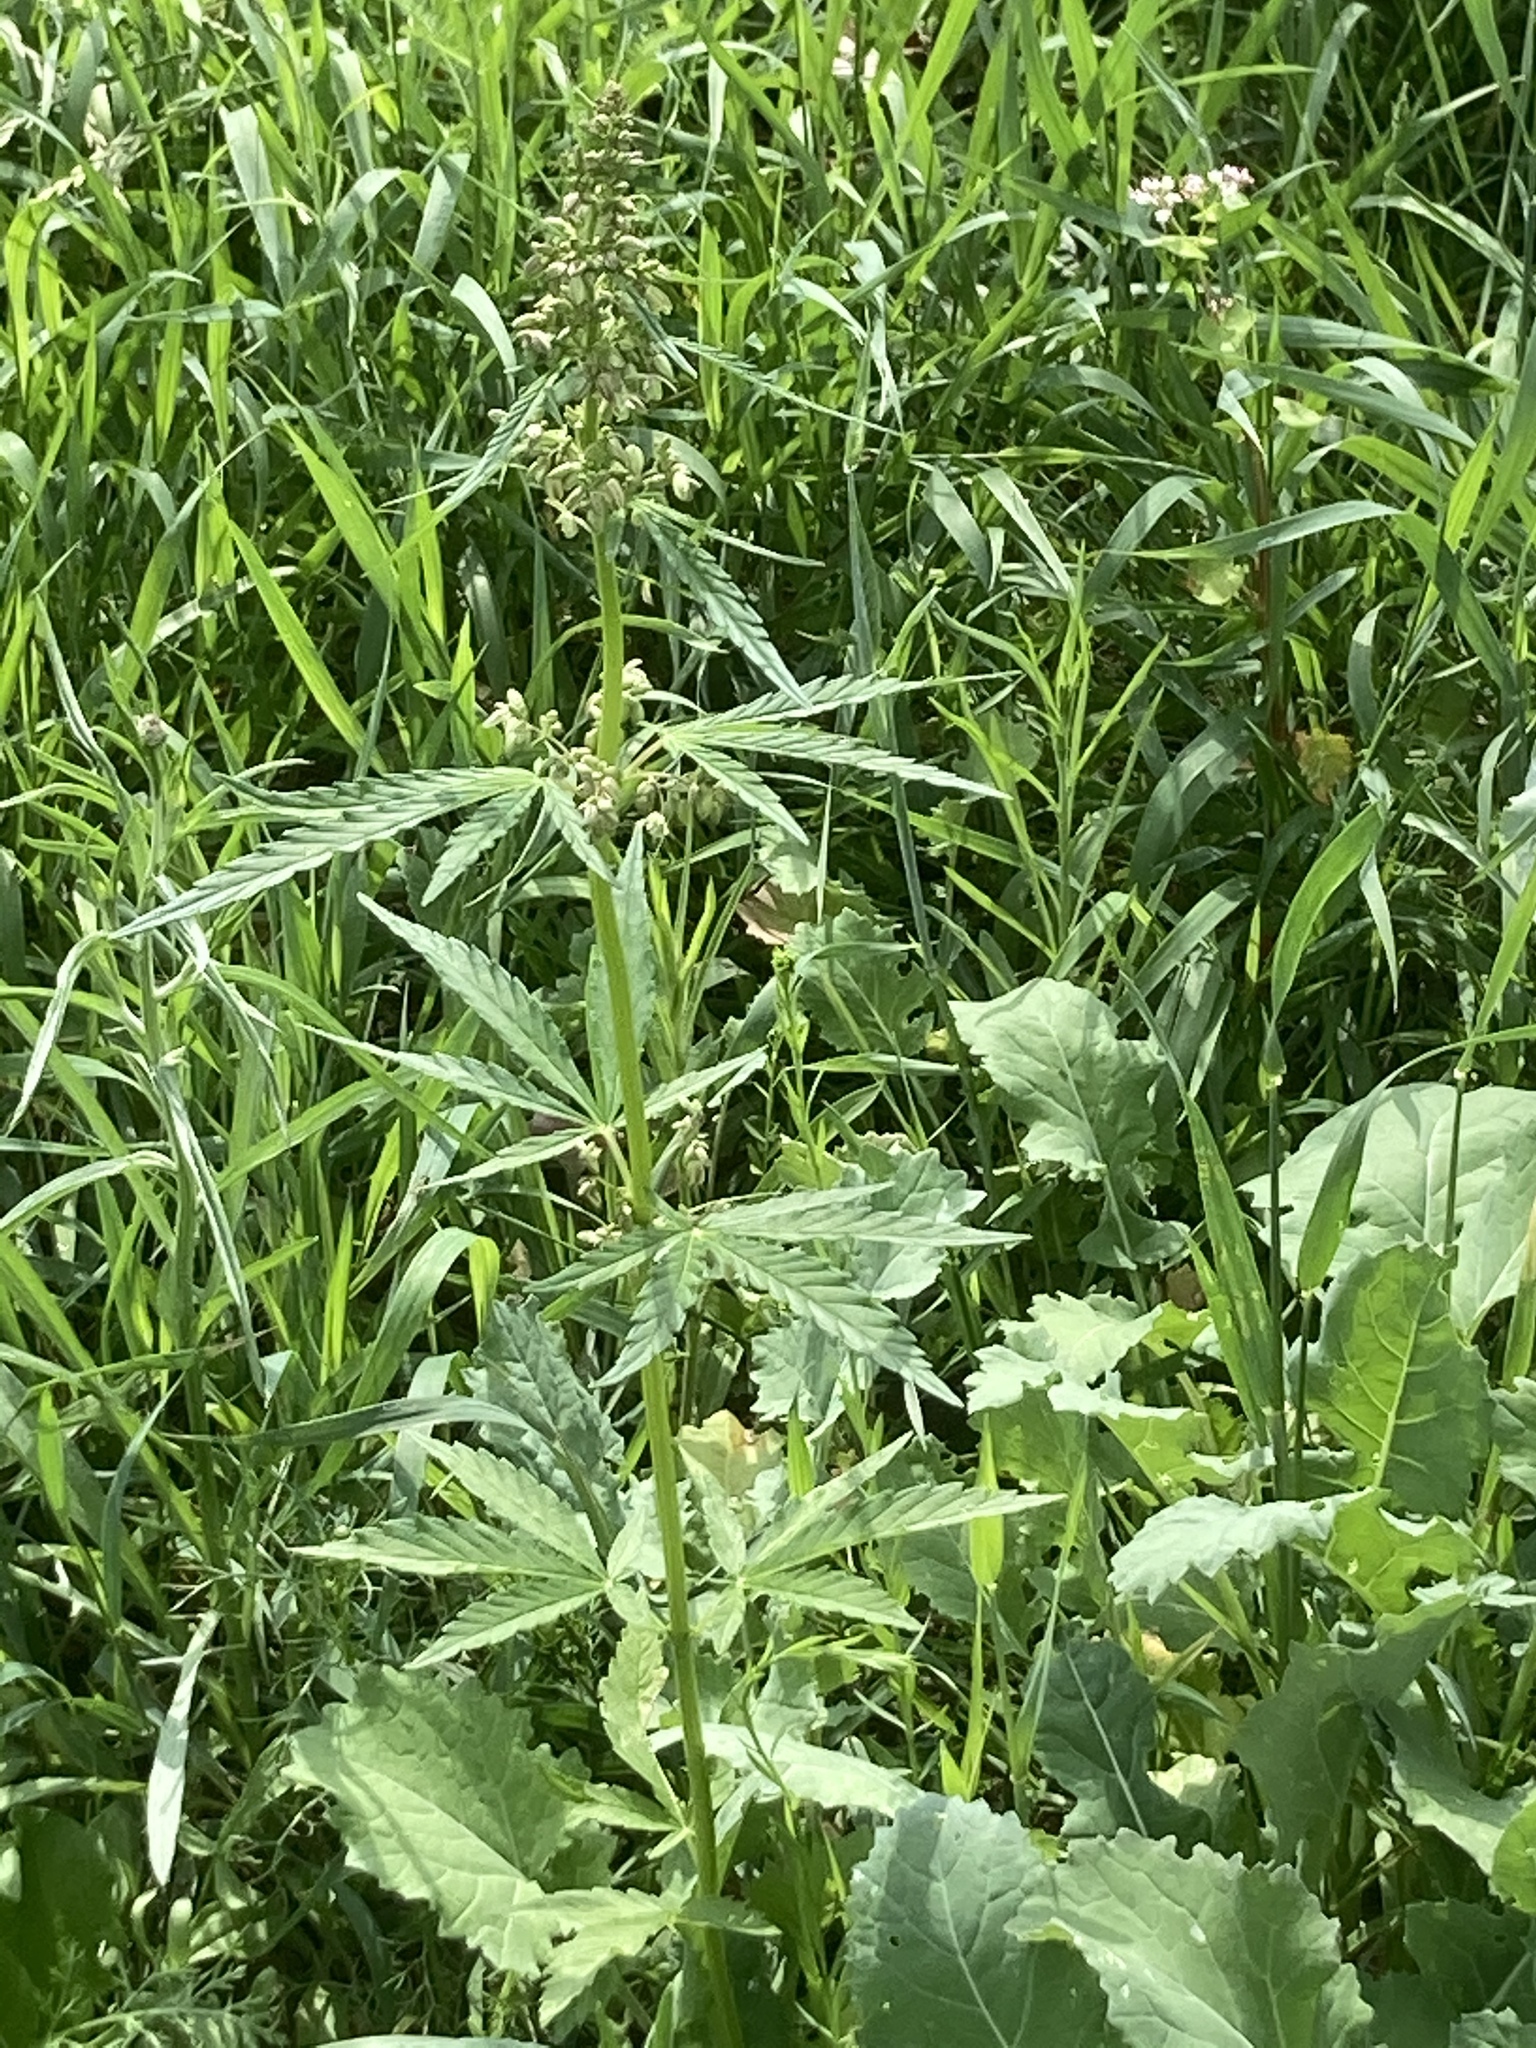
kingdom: Plantae
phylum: Tracheophyta
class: Magnoliopsida
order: Rosales
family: Cannabaceae
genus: Cannabis
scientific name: Cannabis sativa
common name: Hemp
